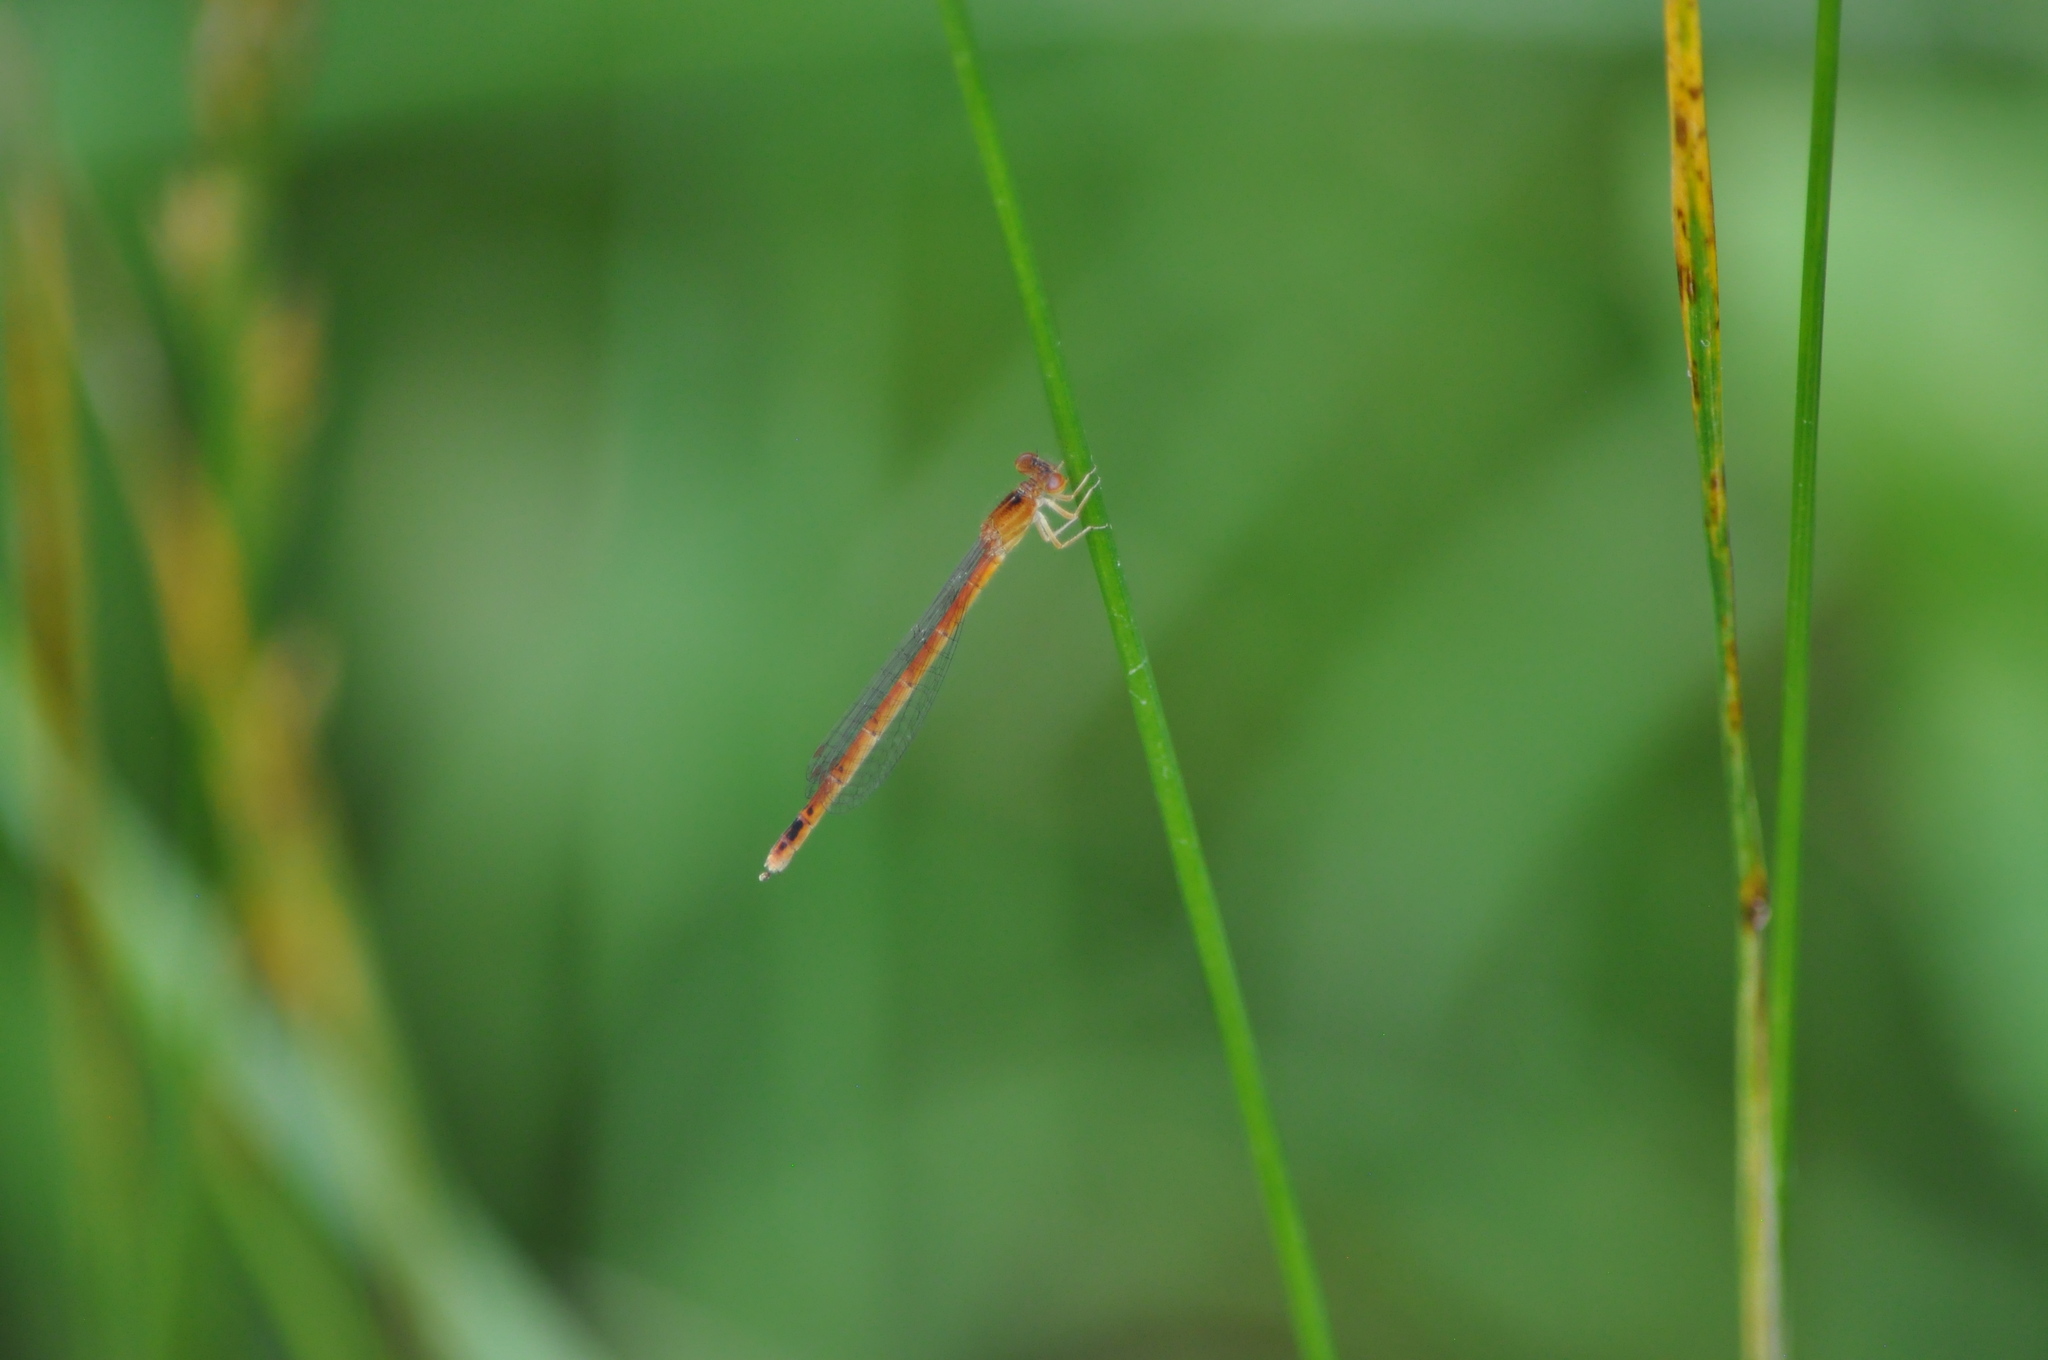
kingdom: Animalia
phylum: Arthropoda
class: Insecta
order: Odonata
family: Coenagrionidae
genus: Amphiagrion
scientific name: Amphiagrion saucium
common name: Eastern red damsel
